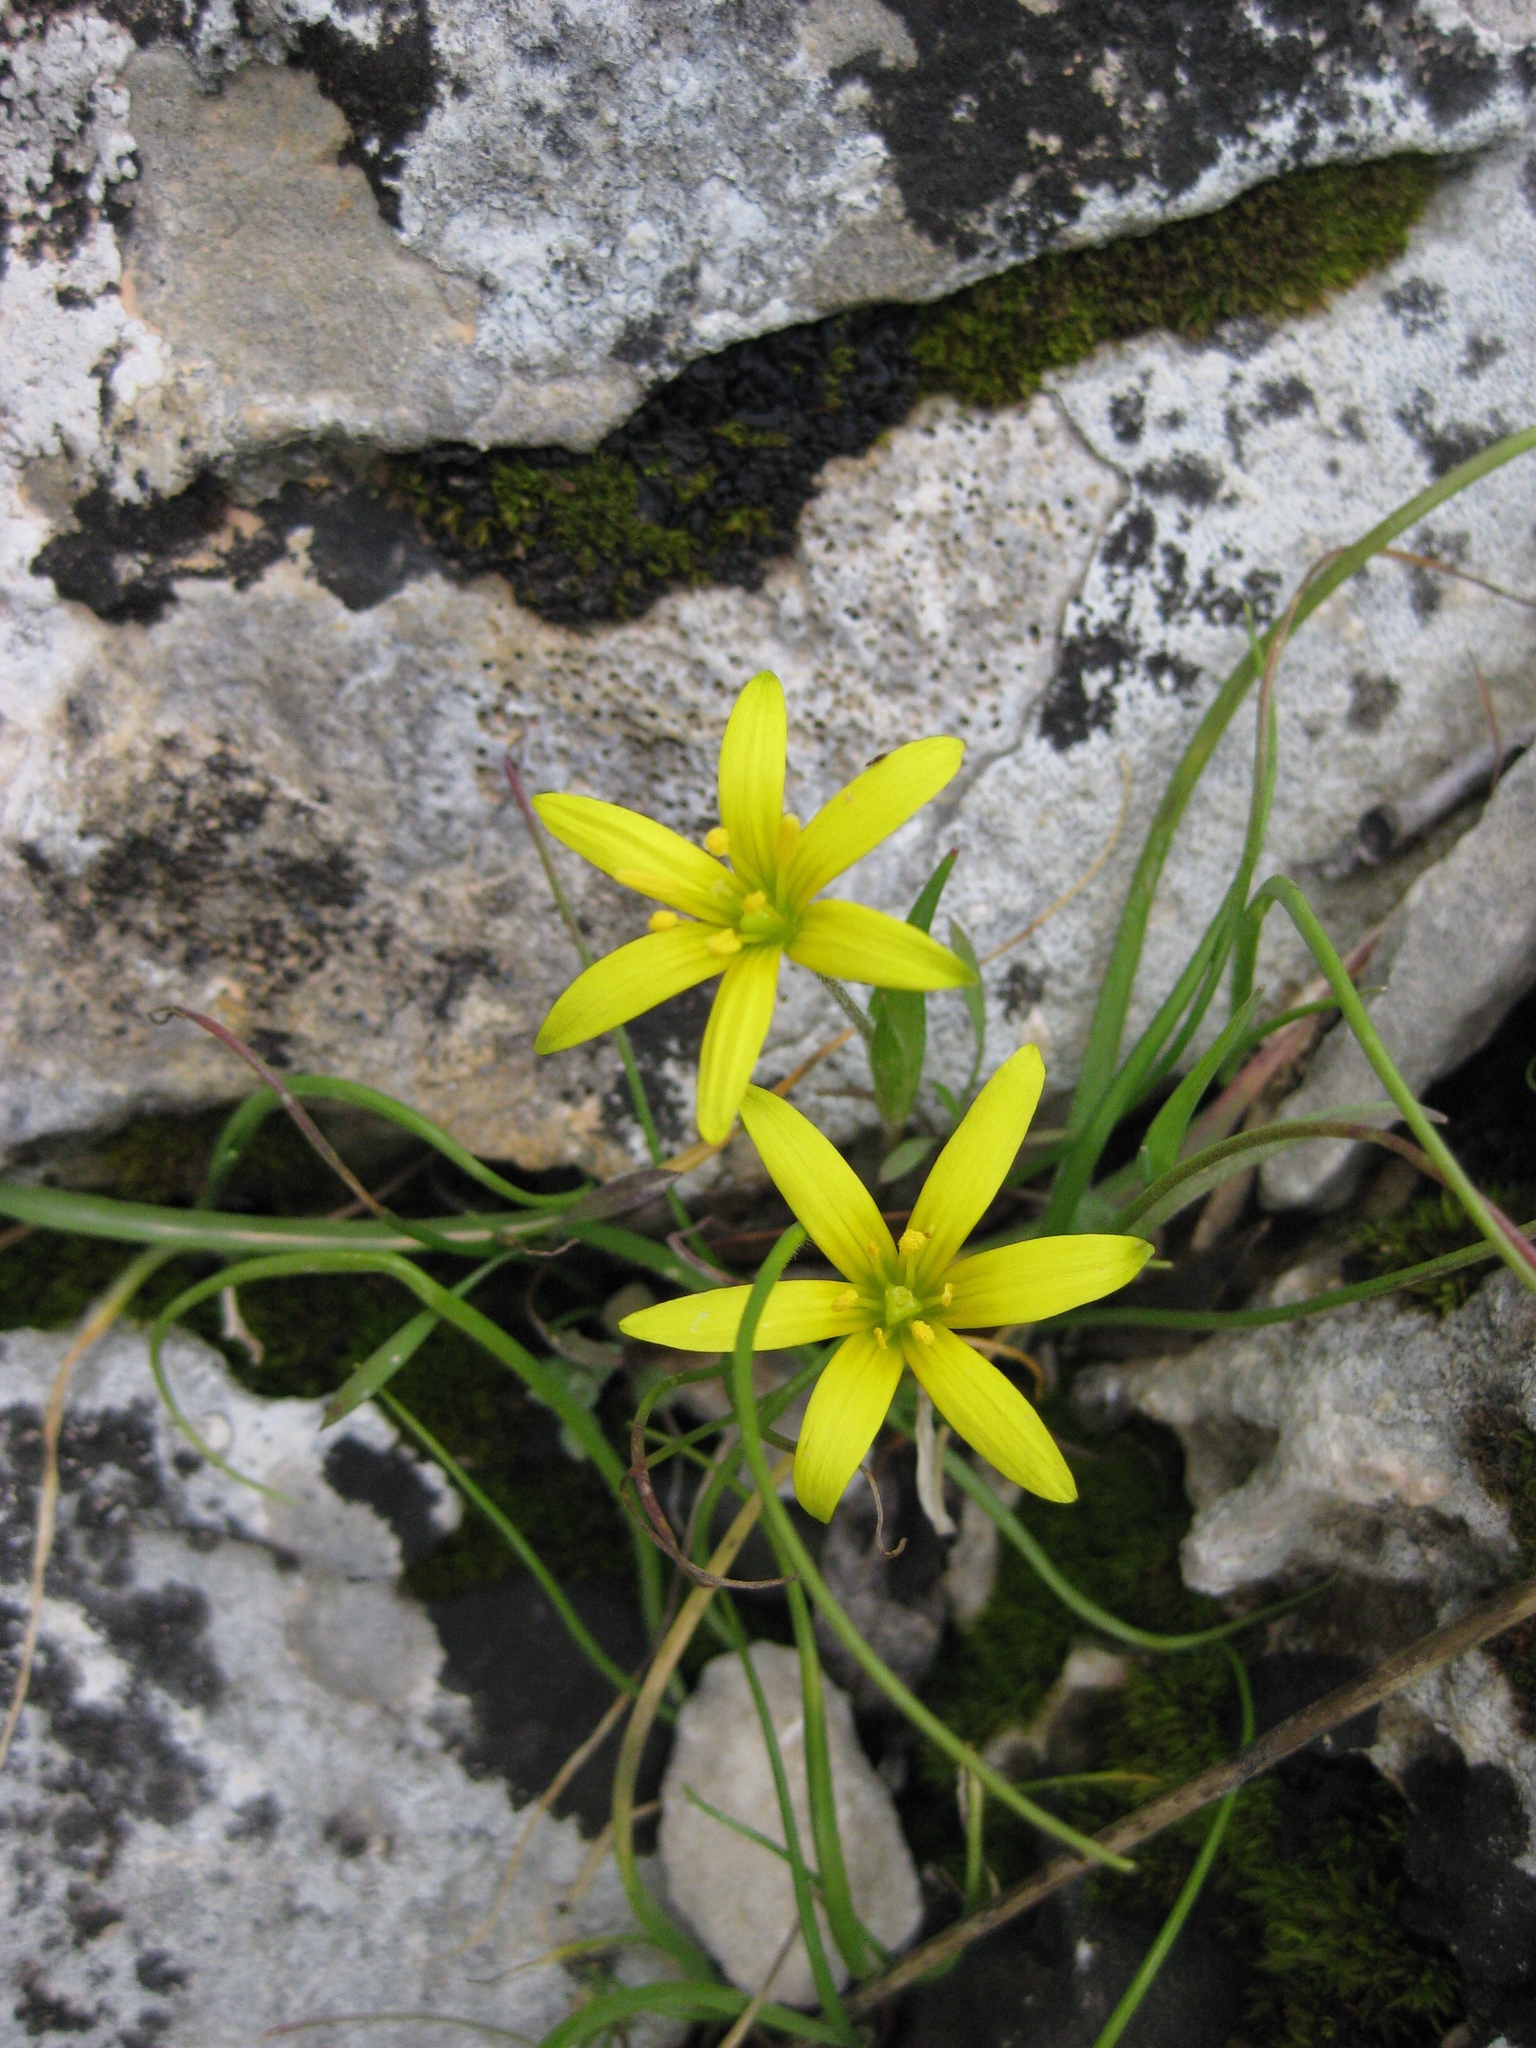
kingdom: Plantae
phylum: Tracheophyta
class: Liliopsida
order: Liliales
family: Liliaceae
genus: Gagea
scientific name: Gagea pratensis
